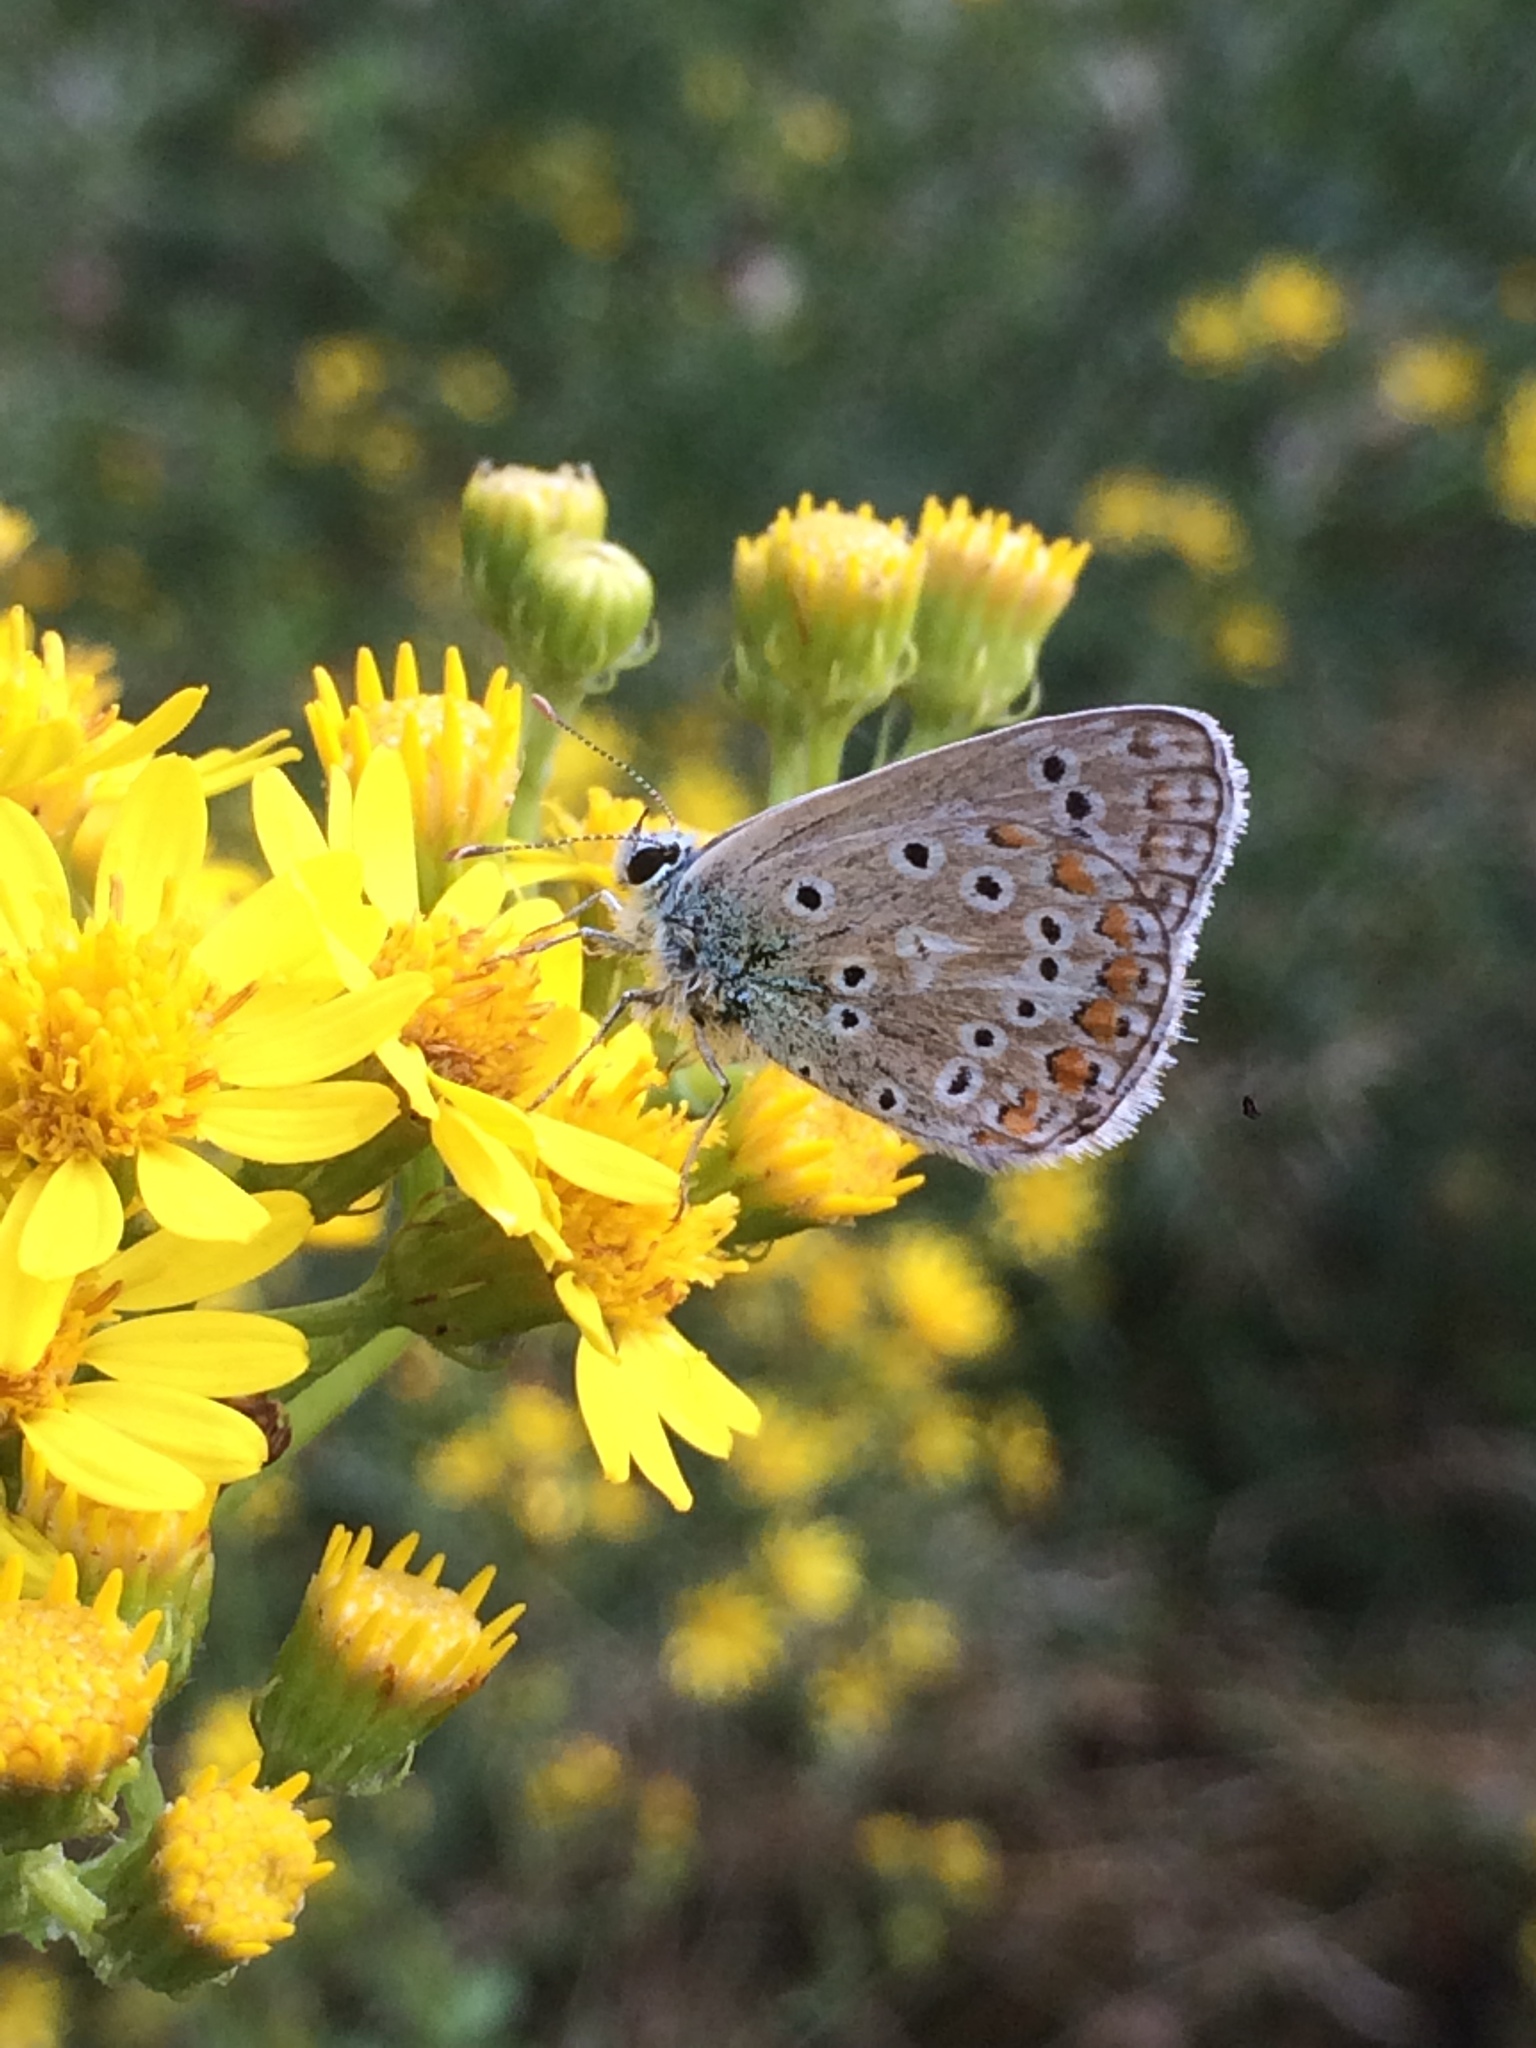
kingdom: Animalia
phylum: Arthropoda
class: Insecta
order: Lepidoptera
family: Lycaenidae
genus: Polyommatus
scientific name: Polyommatus icarus
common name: Common blue
